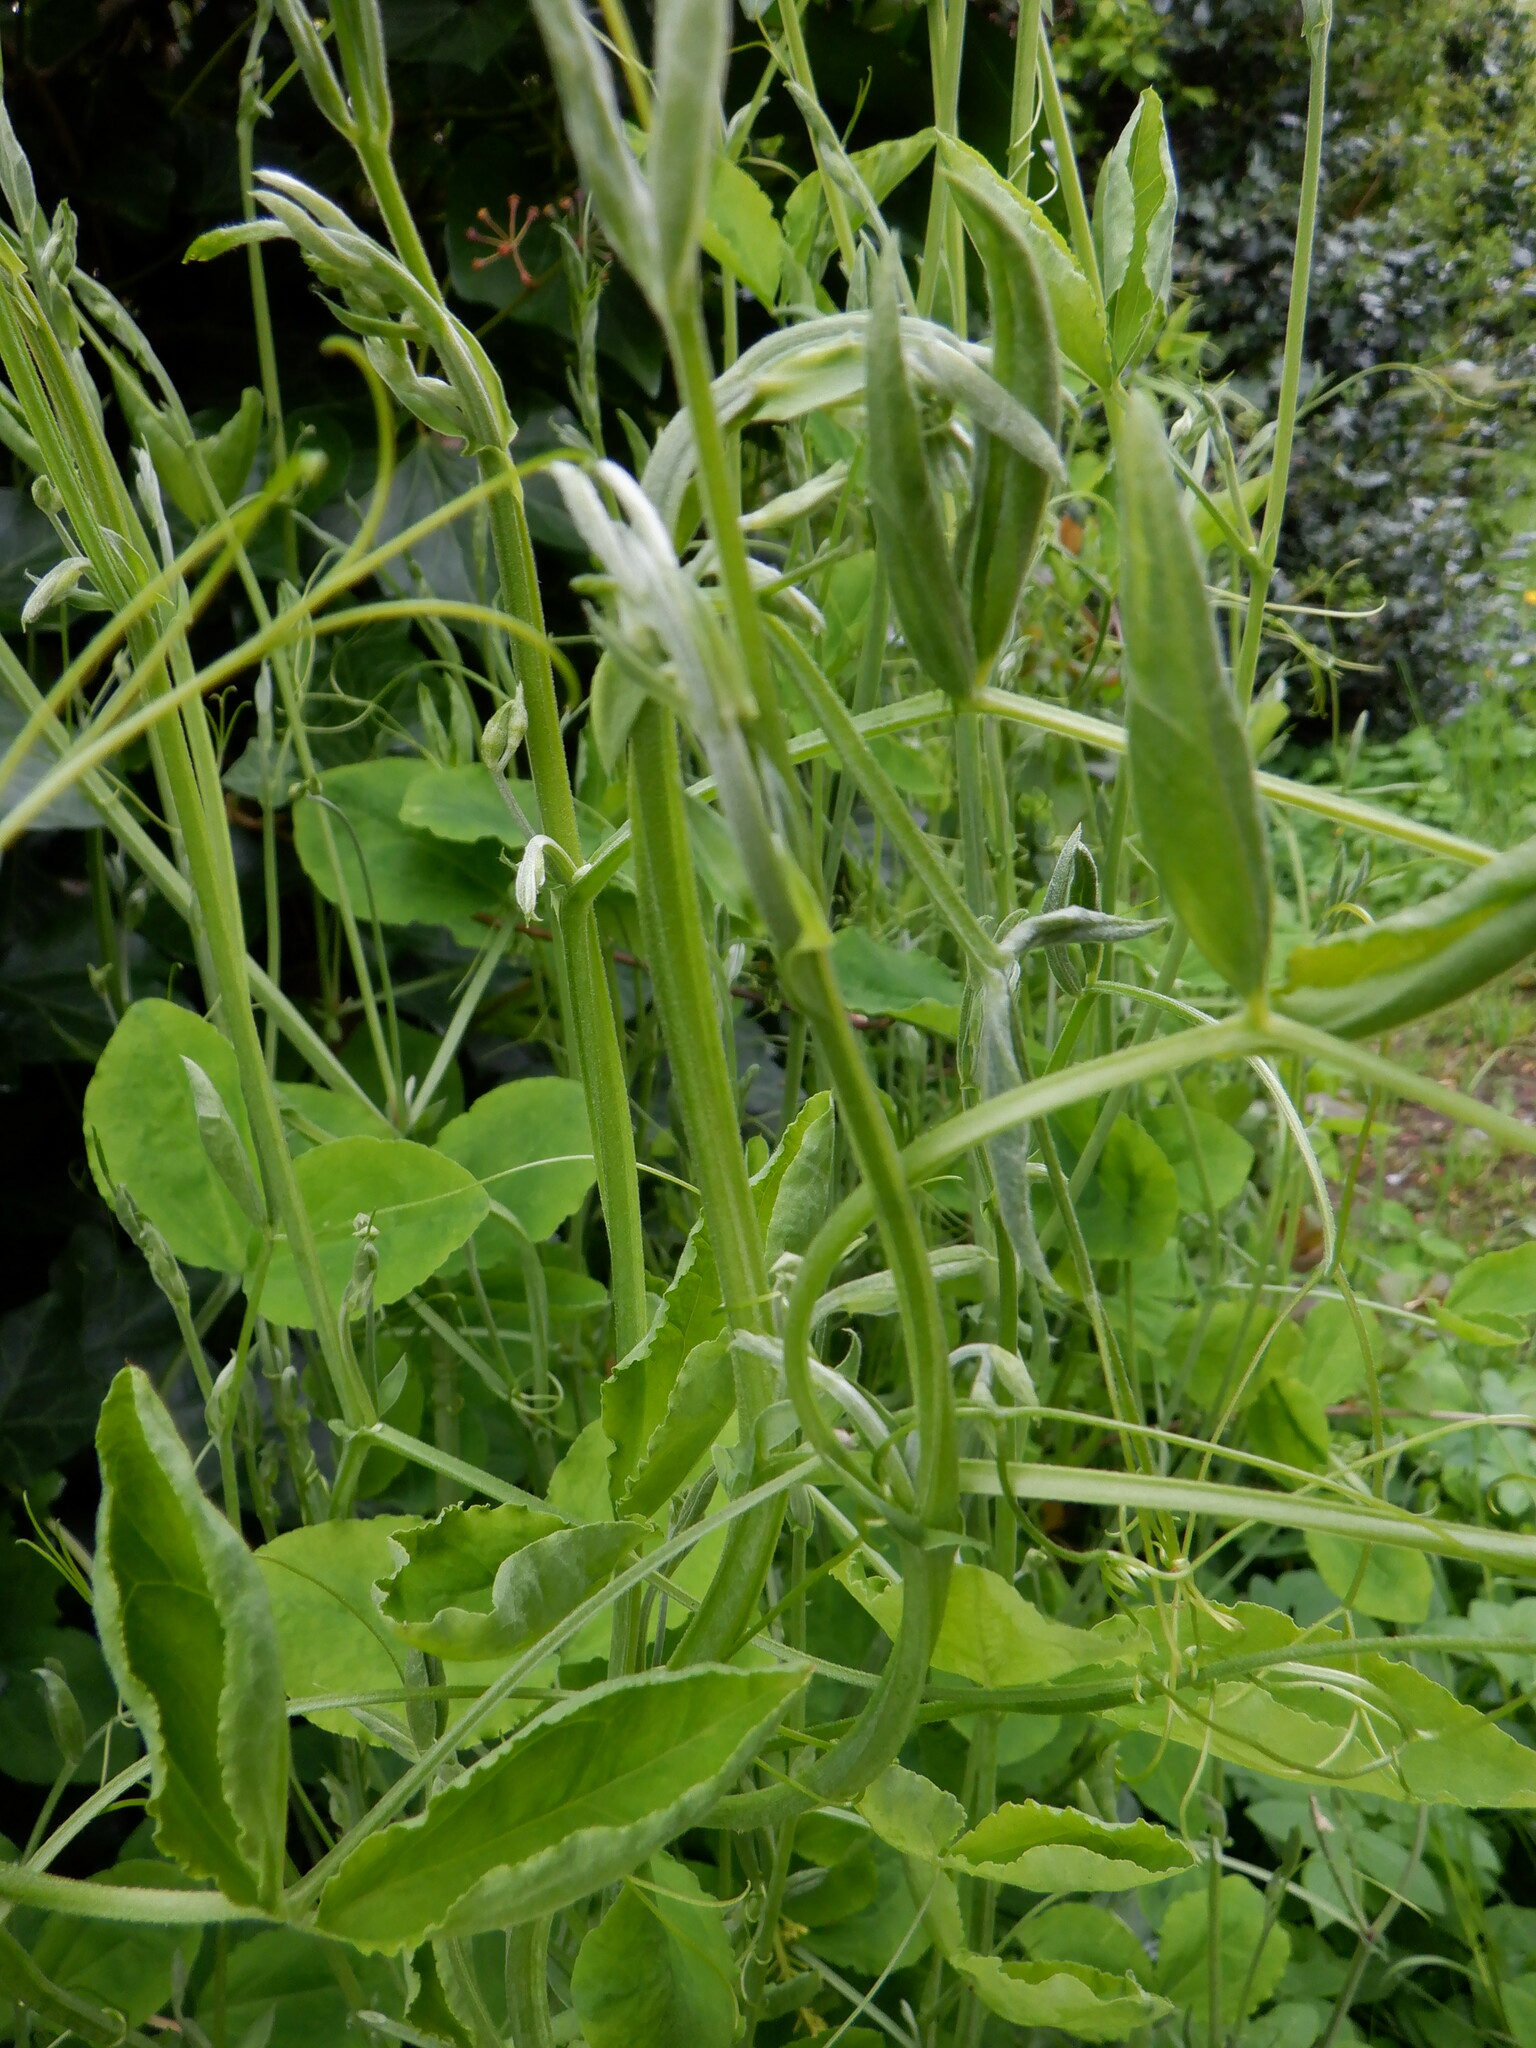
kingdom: Plantae
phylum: Tracheophyta
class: Magnoliopsida
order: Fabales
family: Fabaceae
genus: Lathyrus
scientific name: Lathyrus grandiflorus
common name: Two-flowered everlasting-pea
